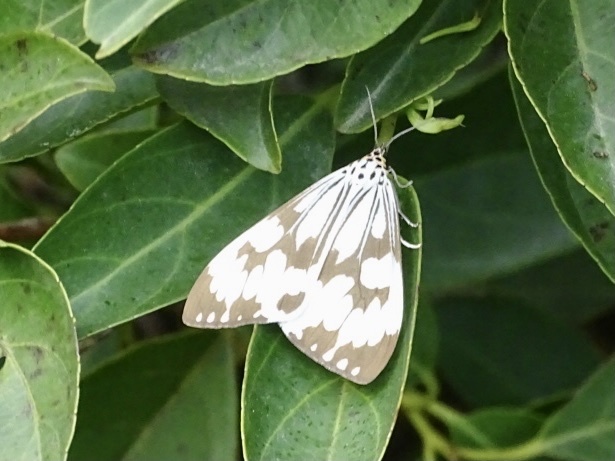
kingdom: Animalia
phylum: Arthropoda
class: Insecta
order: Lepidoptera
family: Erebidae
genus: Nyctemera
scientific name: Nyctemera adversata
